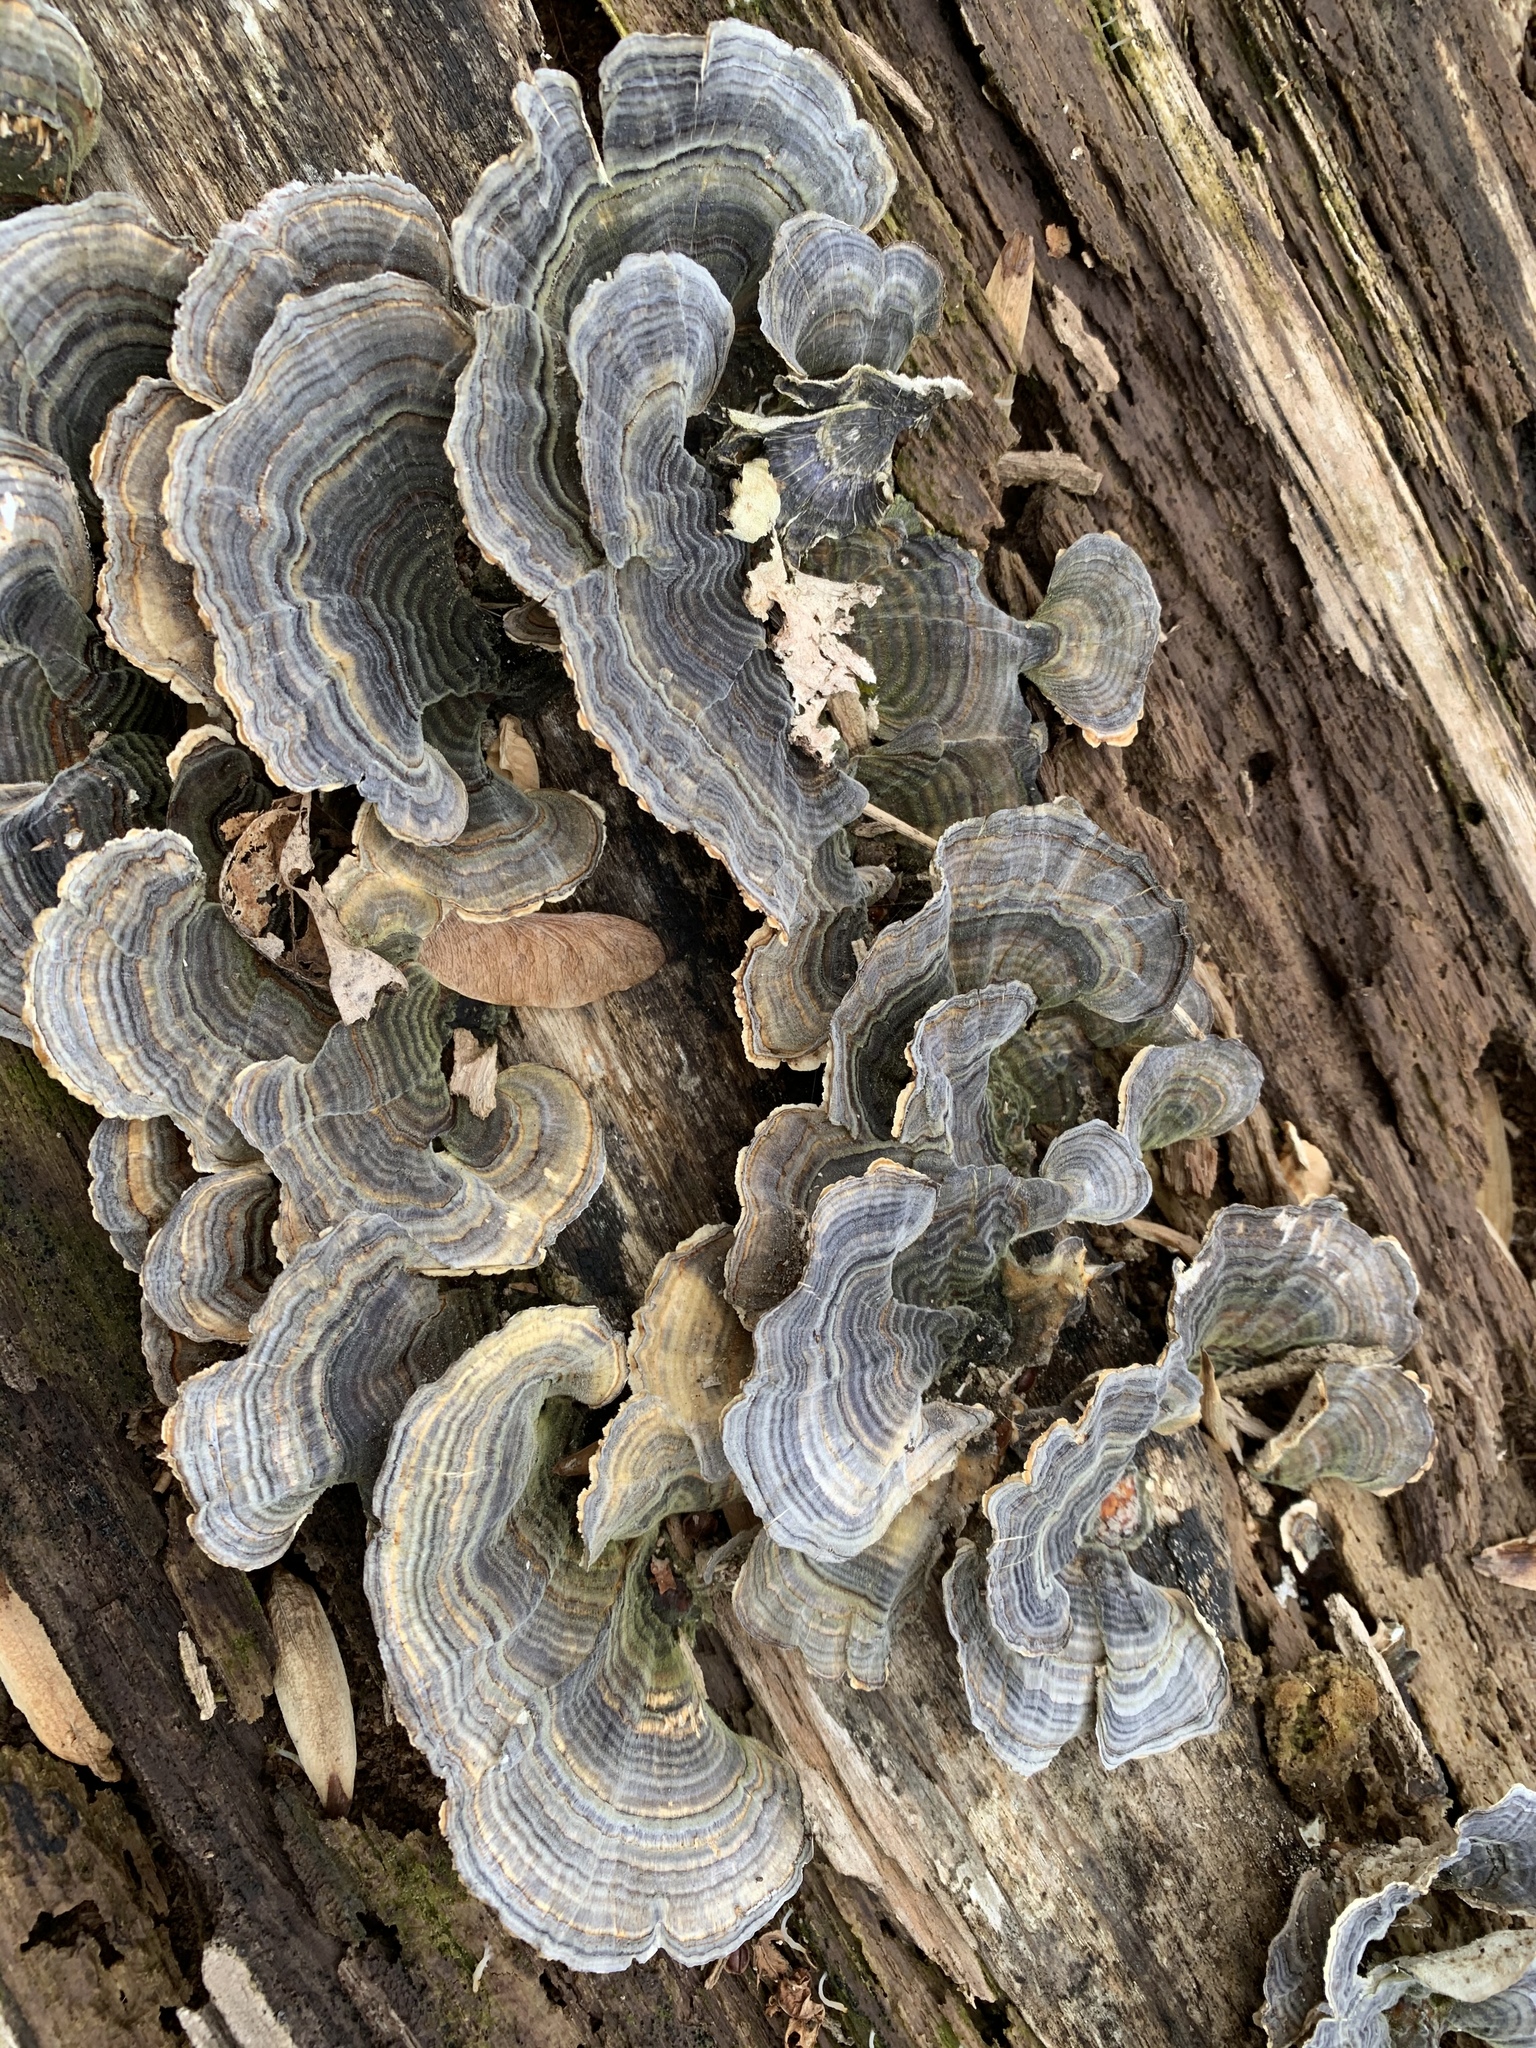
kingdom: Fungi
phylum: Basidiomycota
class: Agaricomycetes
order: Polyporales
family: Polyporaceae
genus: Trametes
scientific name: Trametes versicolor
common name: Turkeytail
